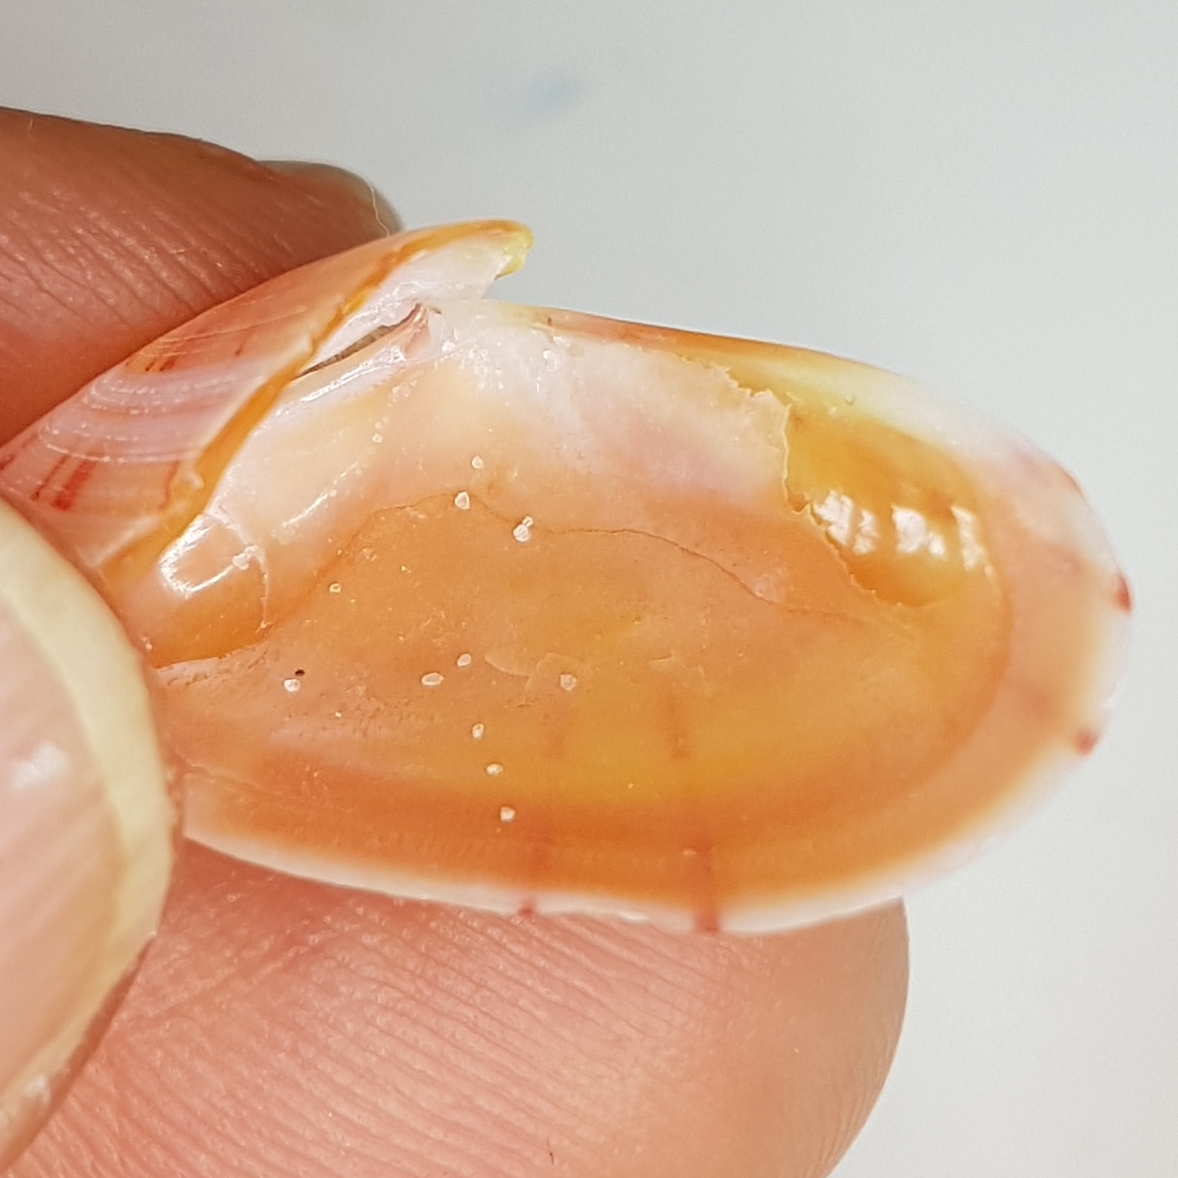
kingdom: Animalia
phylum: Mollusca
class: Bivalvia
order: Cardiida
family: Tellinidae
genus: Moerella
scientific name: Moerella donacina
